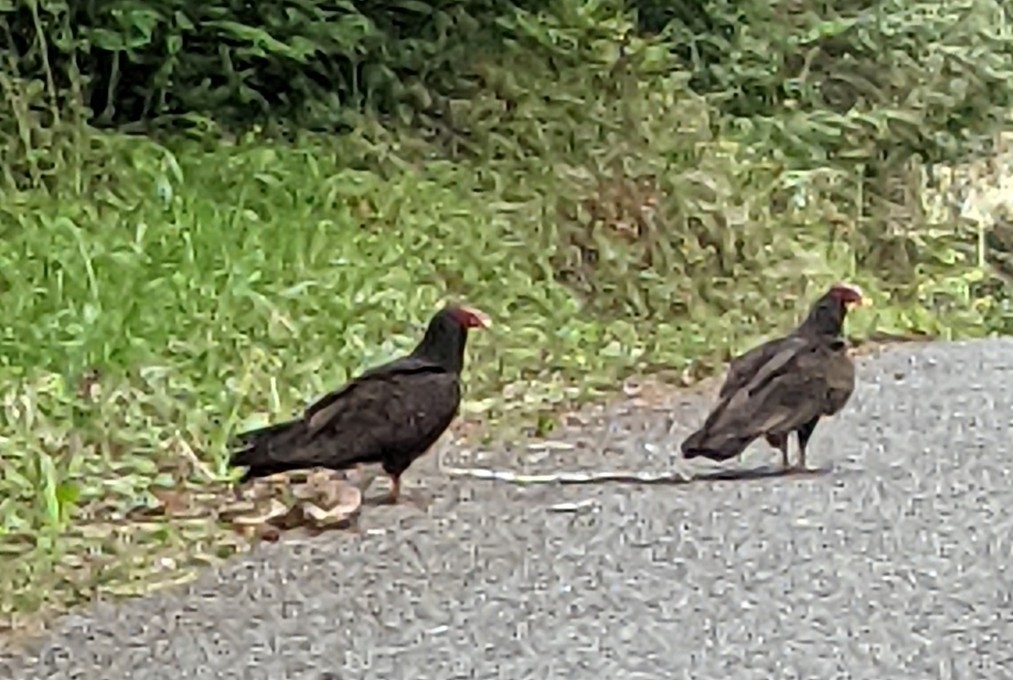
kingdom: Animalia
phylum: Chordata
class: Aves
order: Accipitriformes
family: Cathartidae
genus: Cathartes
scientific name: Cathartes aura
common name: Turkey vulture
